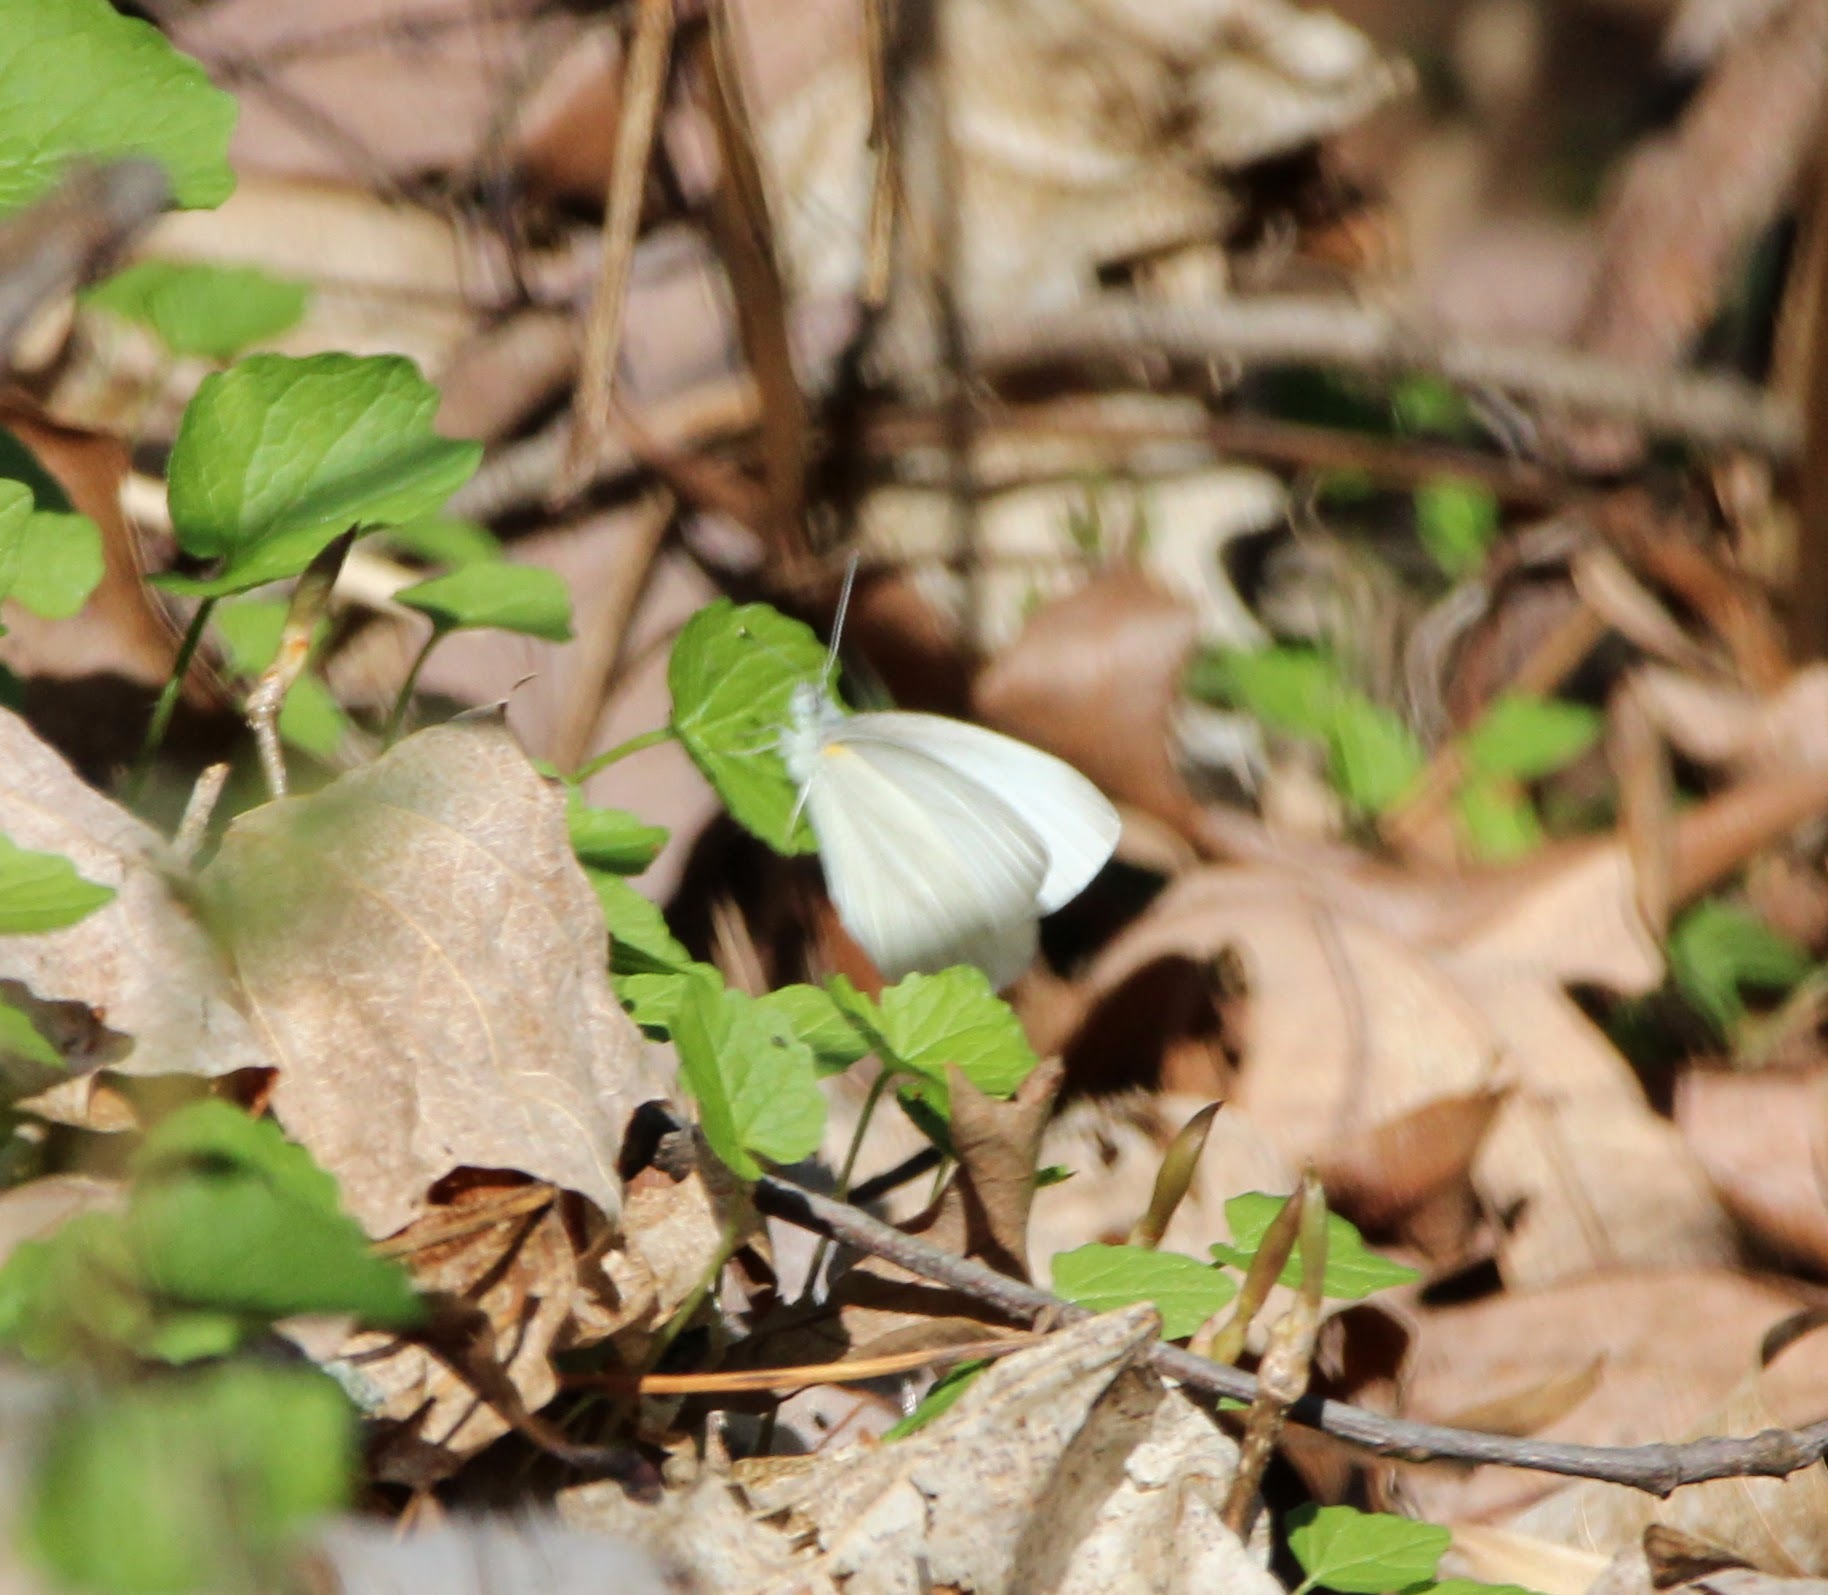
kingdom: Animalia
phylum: Arthropoda
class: Insecta
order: Lepidoptera
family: Pieridae
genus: Pieris
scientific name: Pieris virginiensis
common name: West virginia white
